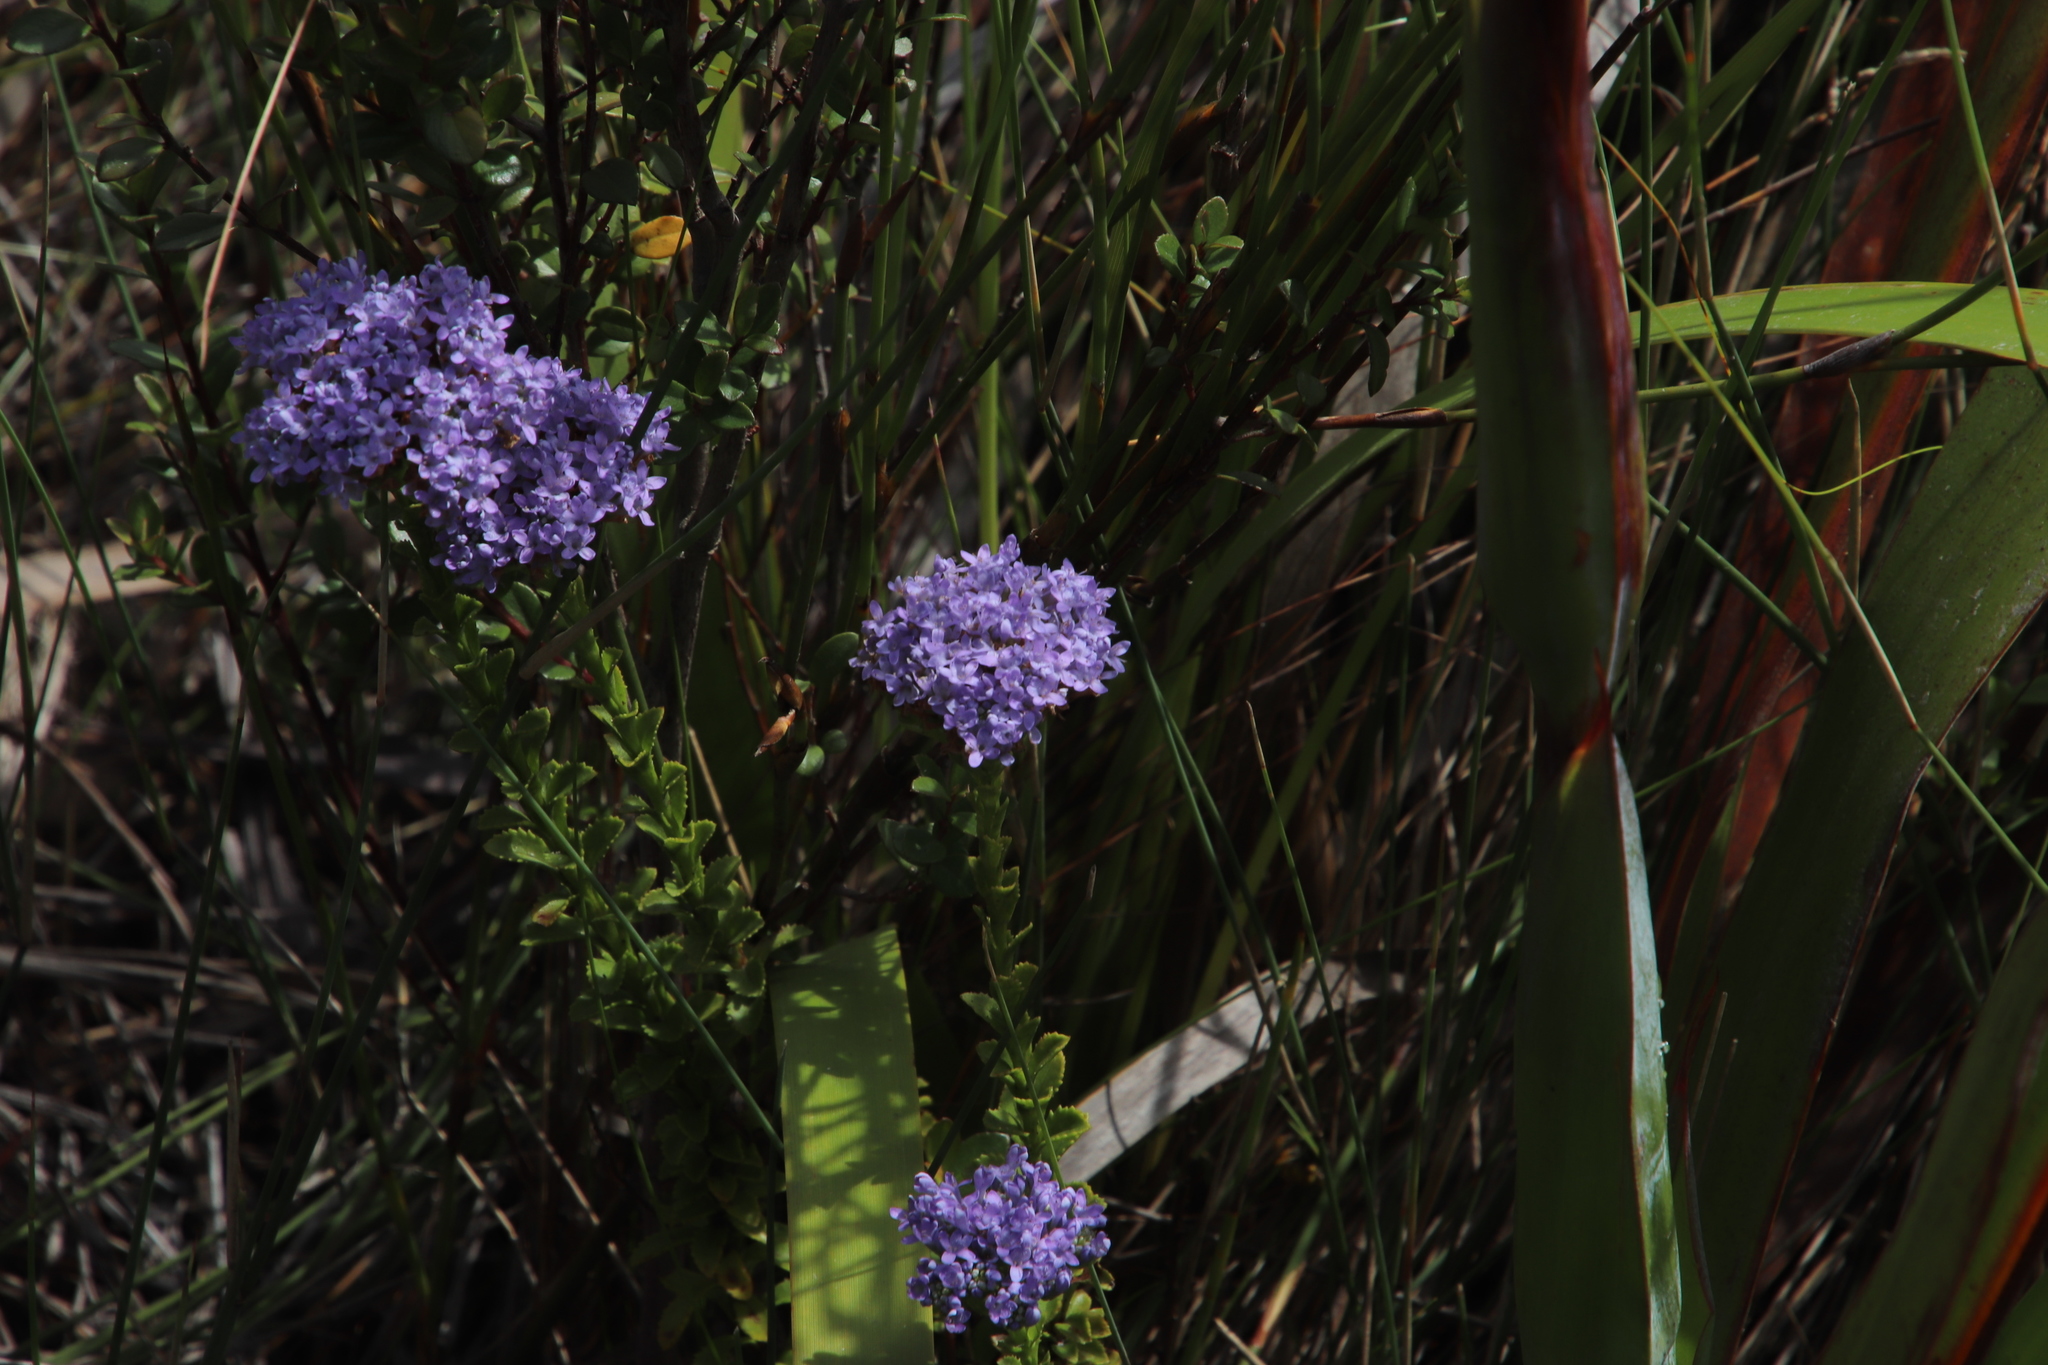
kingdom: Plantae
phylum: Tracheophyta
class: Magnoliopsida
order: Lamiales
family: Scrophulariaceae
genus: Pseudoselago
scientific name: Pseudoselago serrata
